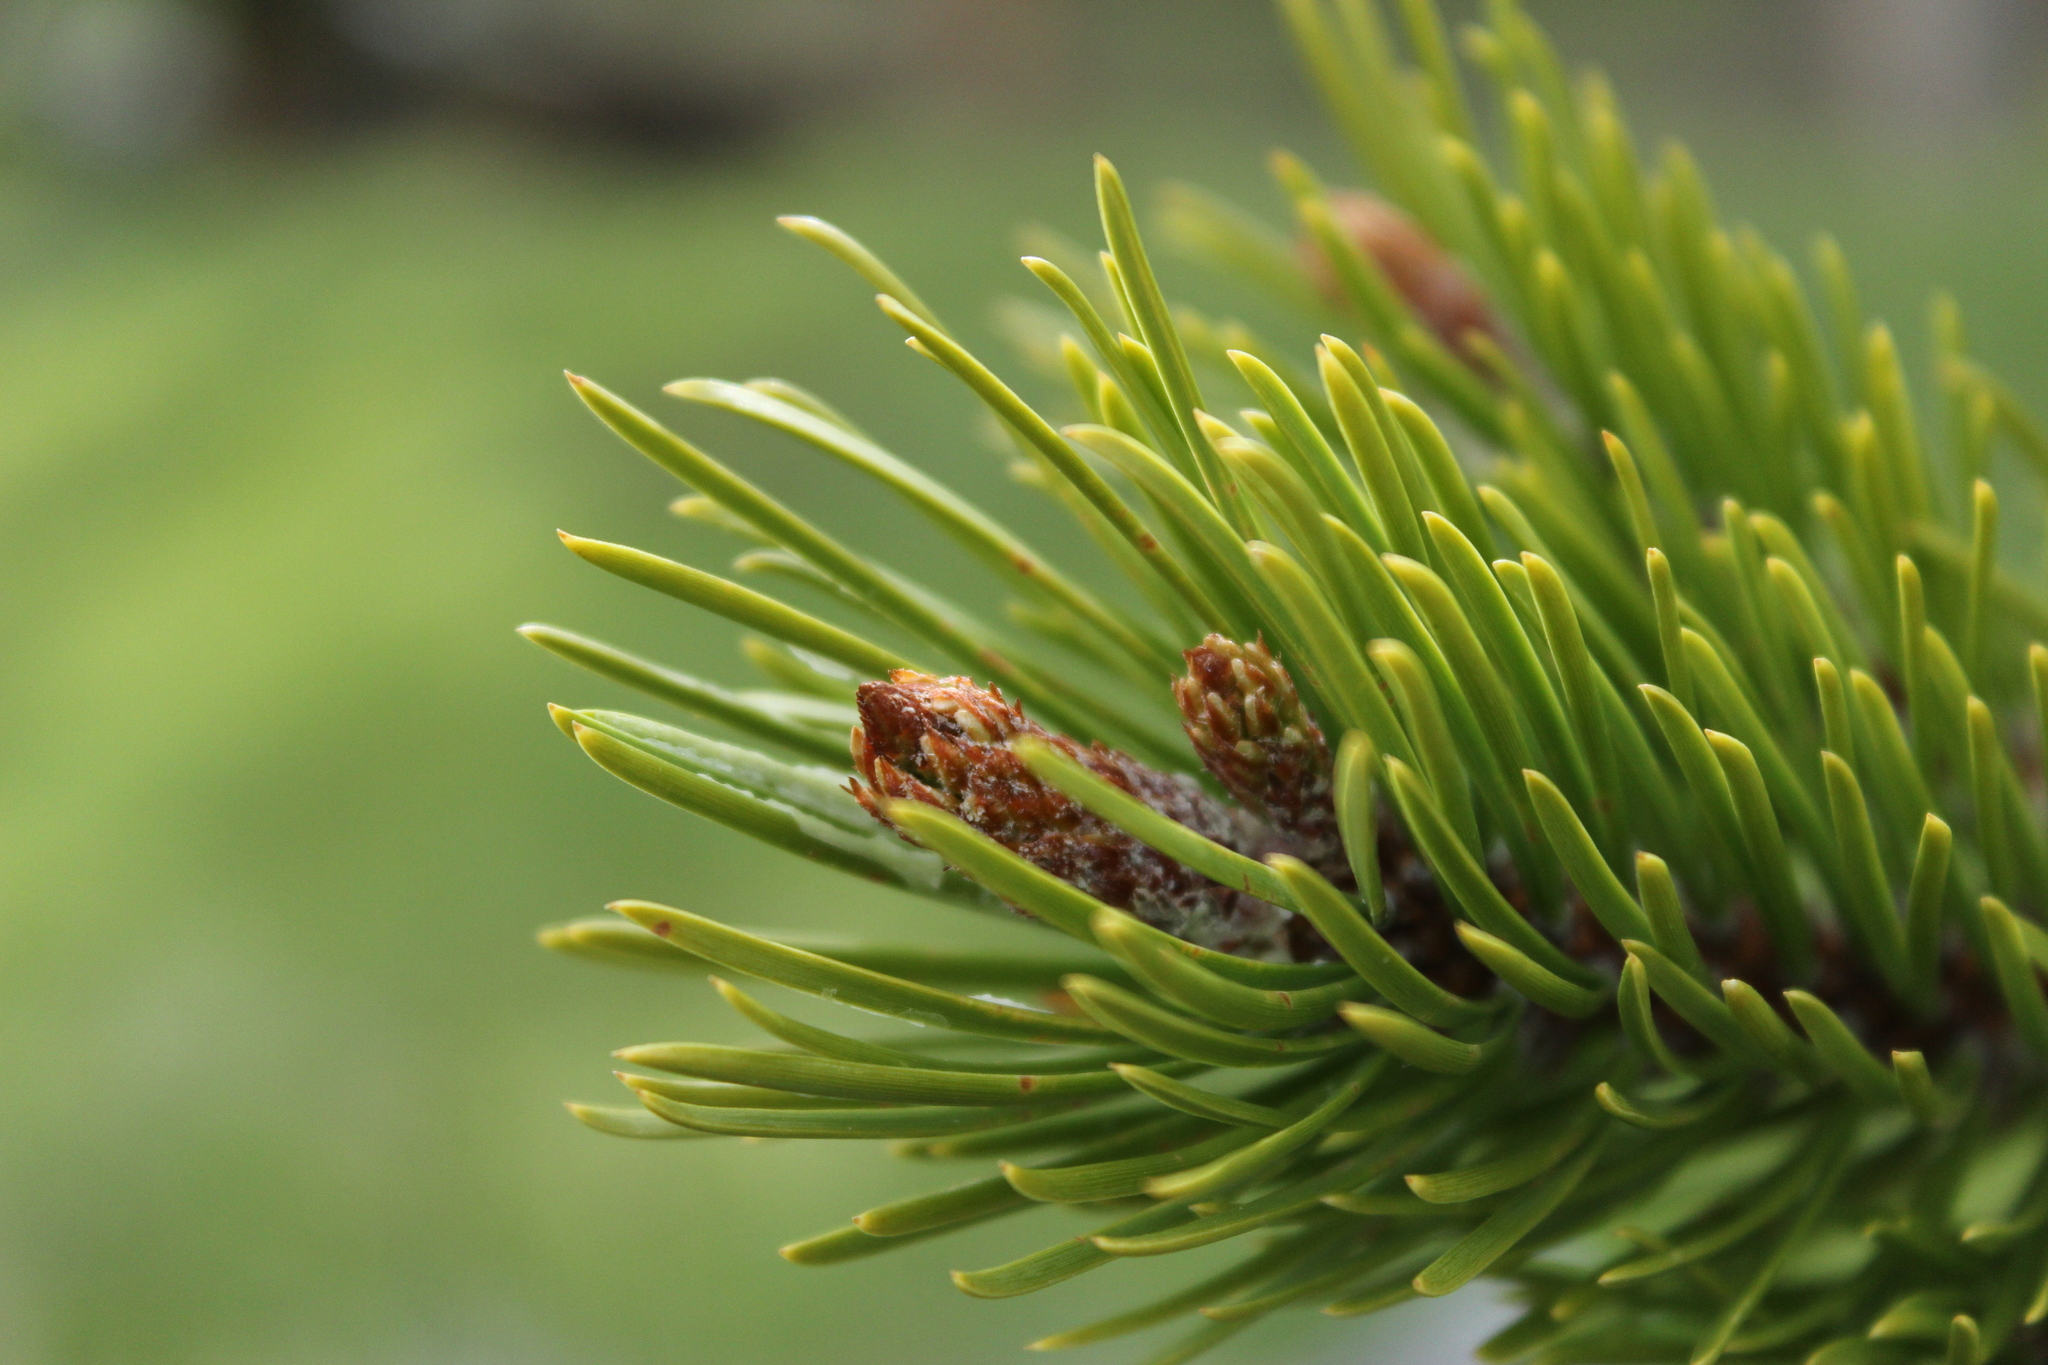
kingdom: Plantae
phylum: Tracheophyta
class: Pinopsida
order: Pinales
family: Pinaceae
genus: Pinus
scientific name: Pinus contorta
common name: Lodgepole pine
